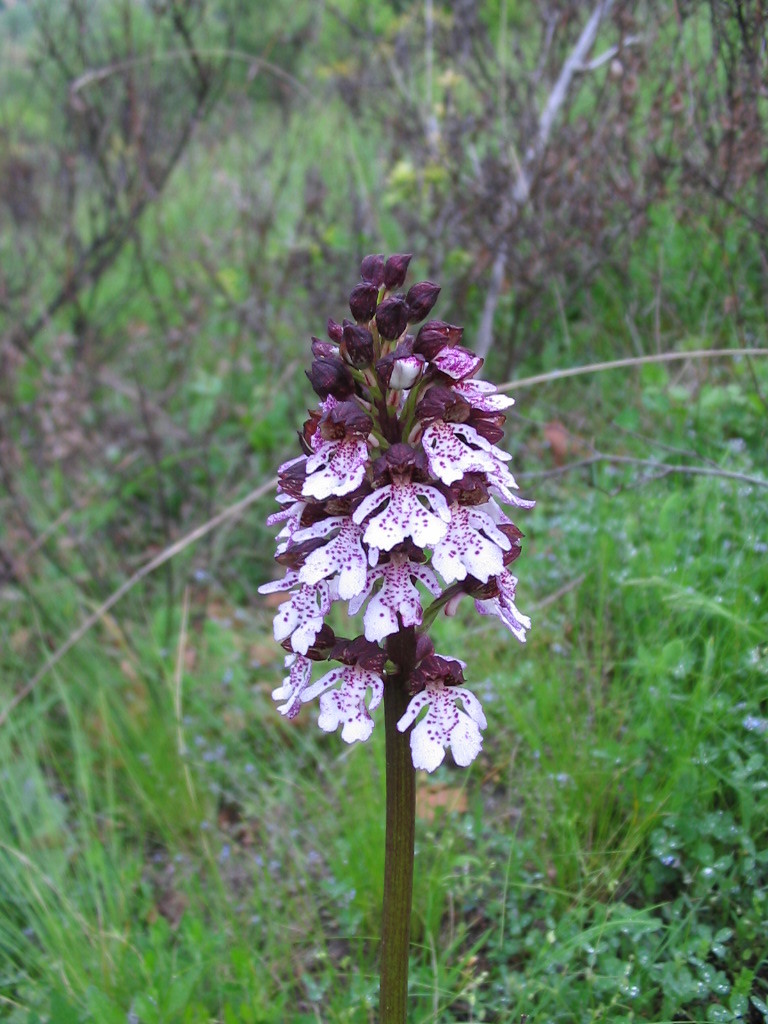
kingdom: Plantae
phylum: Tracheophyta
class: Liliopsida
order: Asparagales
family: Orchidaceae
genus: Orchis
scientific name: Orchis purpurea
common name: Lady orchid
